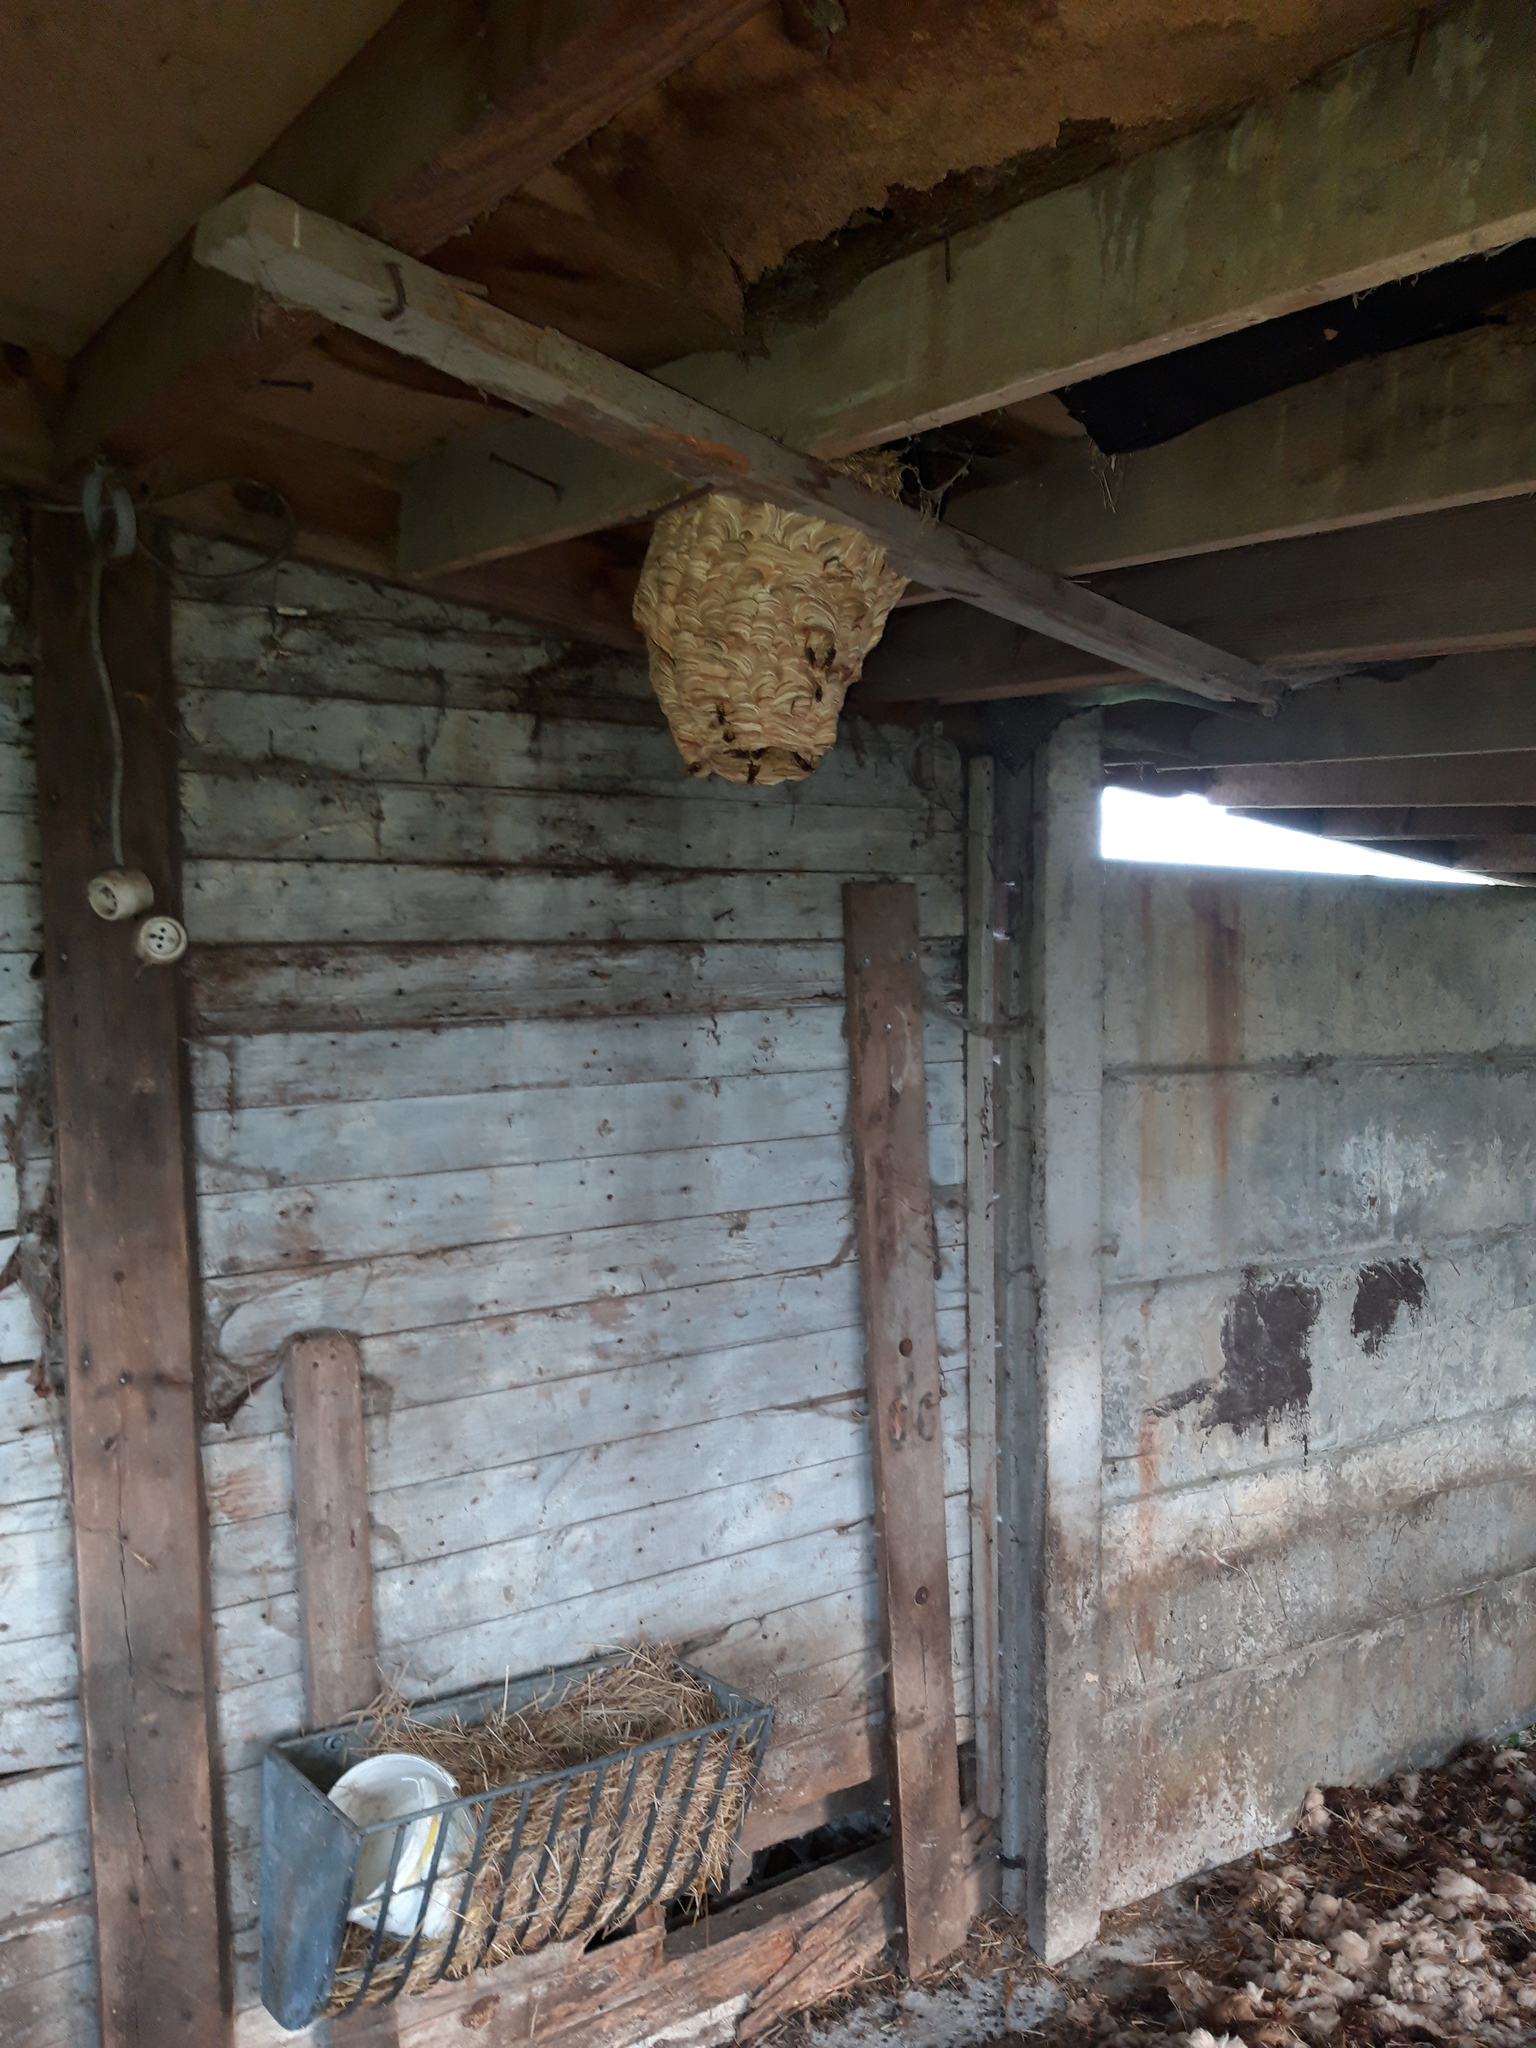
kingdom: Animalia
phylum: Arthropoda
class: Insecta
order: Hymenoptera
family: Vespidae
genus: Vespa
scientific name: Vespa crabro
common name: Hornet
